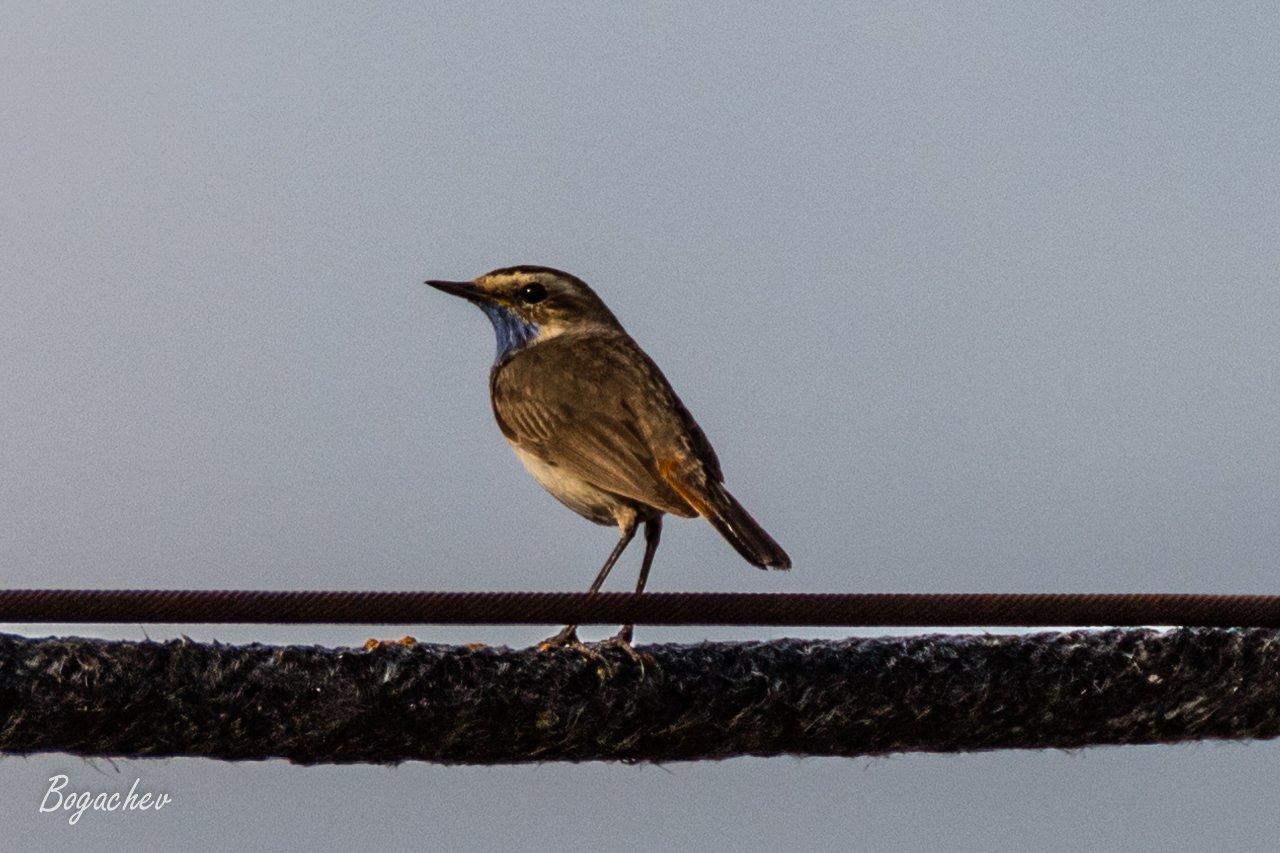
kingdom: Animalia
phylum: Chordata
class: Aves
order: Passeriformes
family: Muscicapidae
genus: Luscinia
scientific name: Luscinia svecica
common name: Bluethroat
